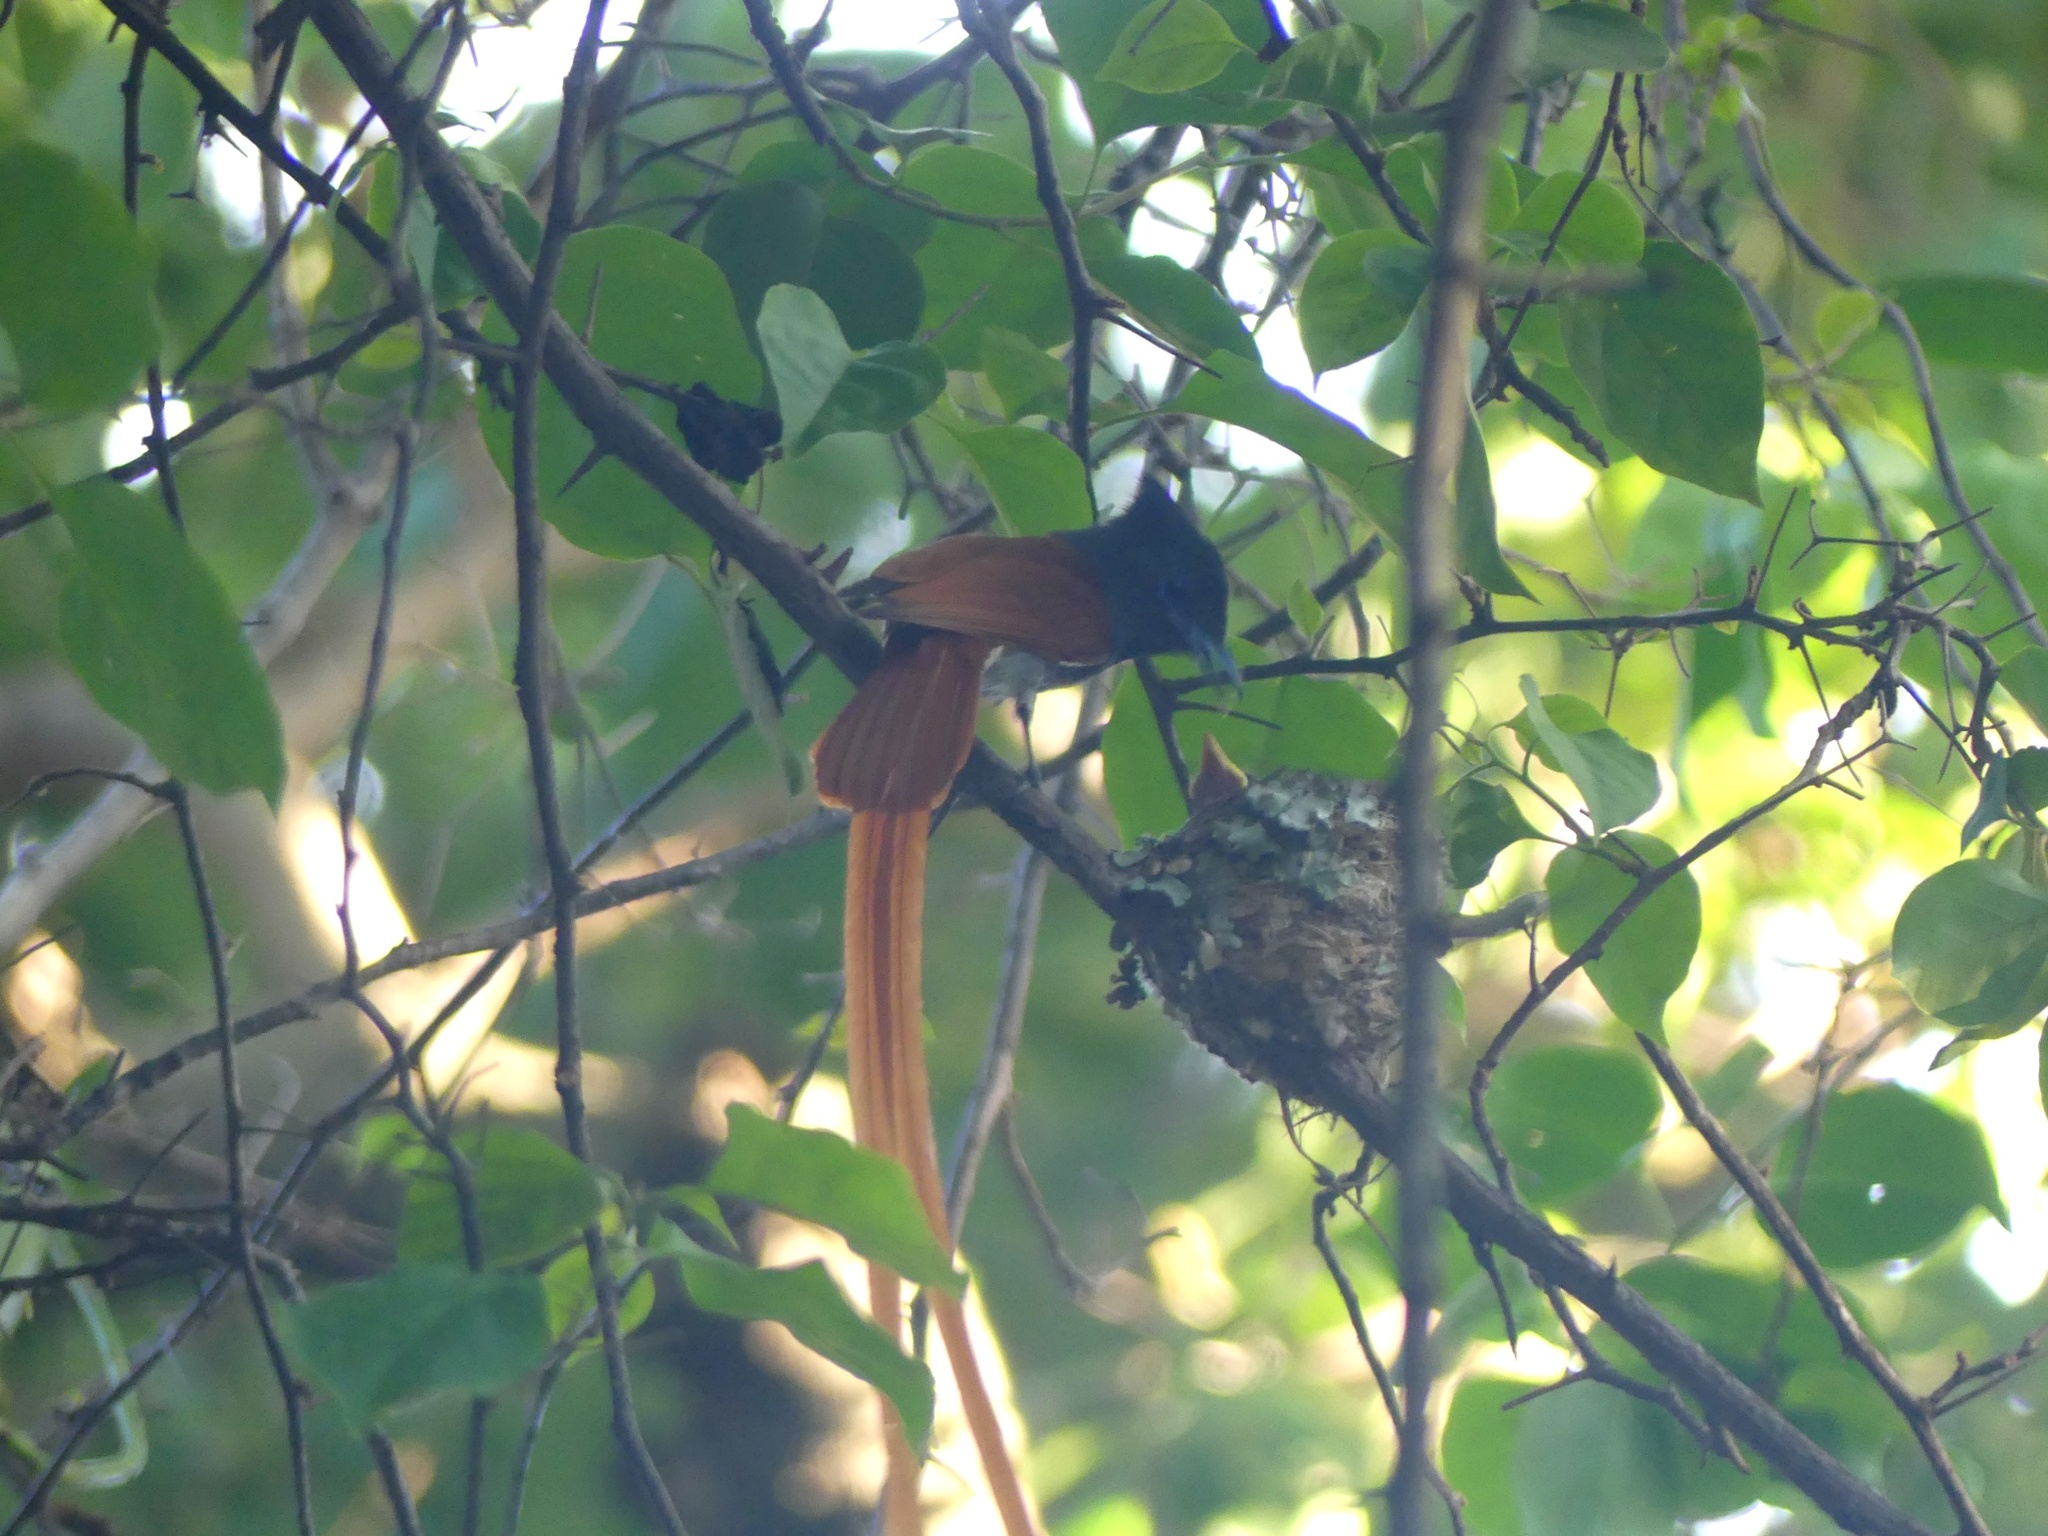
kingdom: Animalia
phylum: Chordata
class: Aves
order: Passeriformes
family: Monarchidae
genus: Terpsiphone
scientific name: Terpsiphone viridis
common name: African paradise flycatcher
